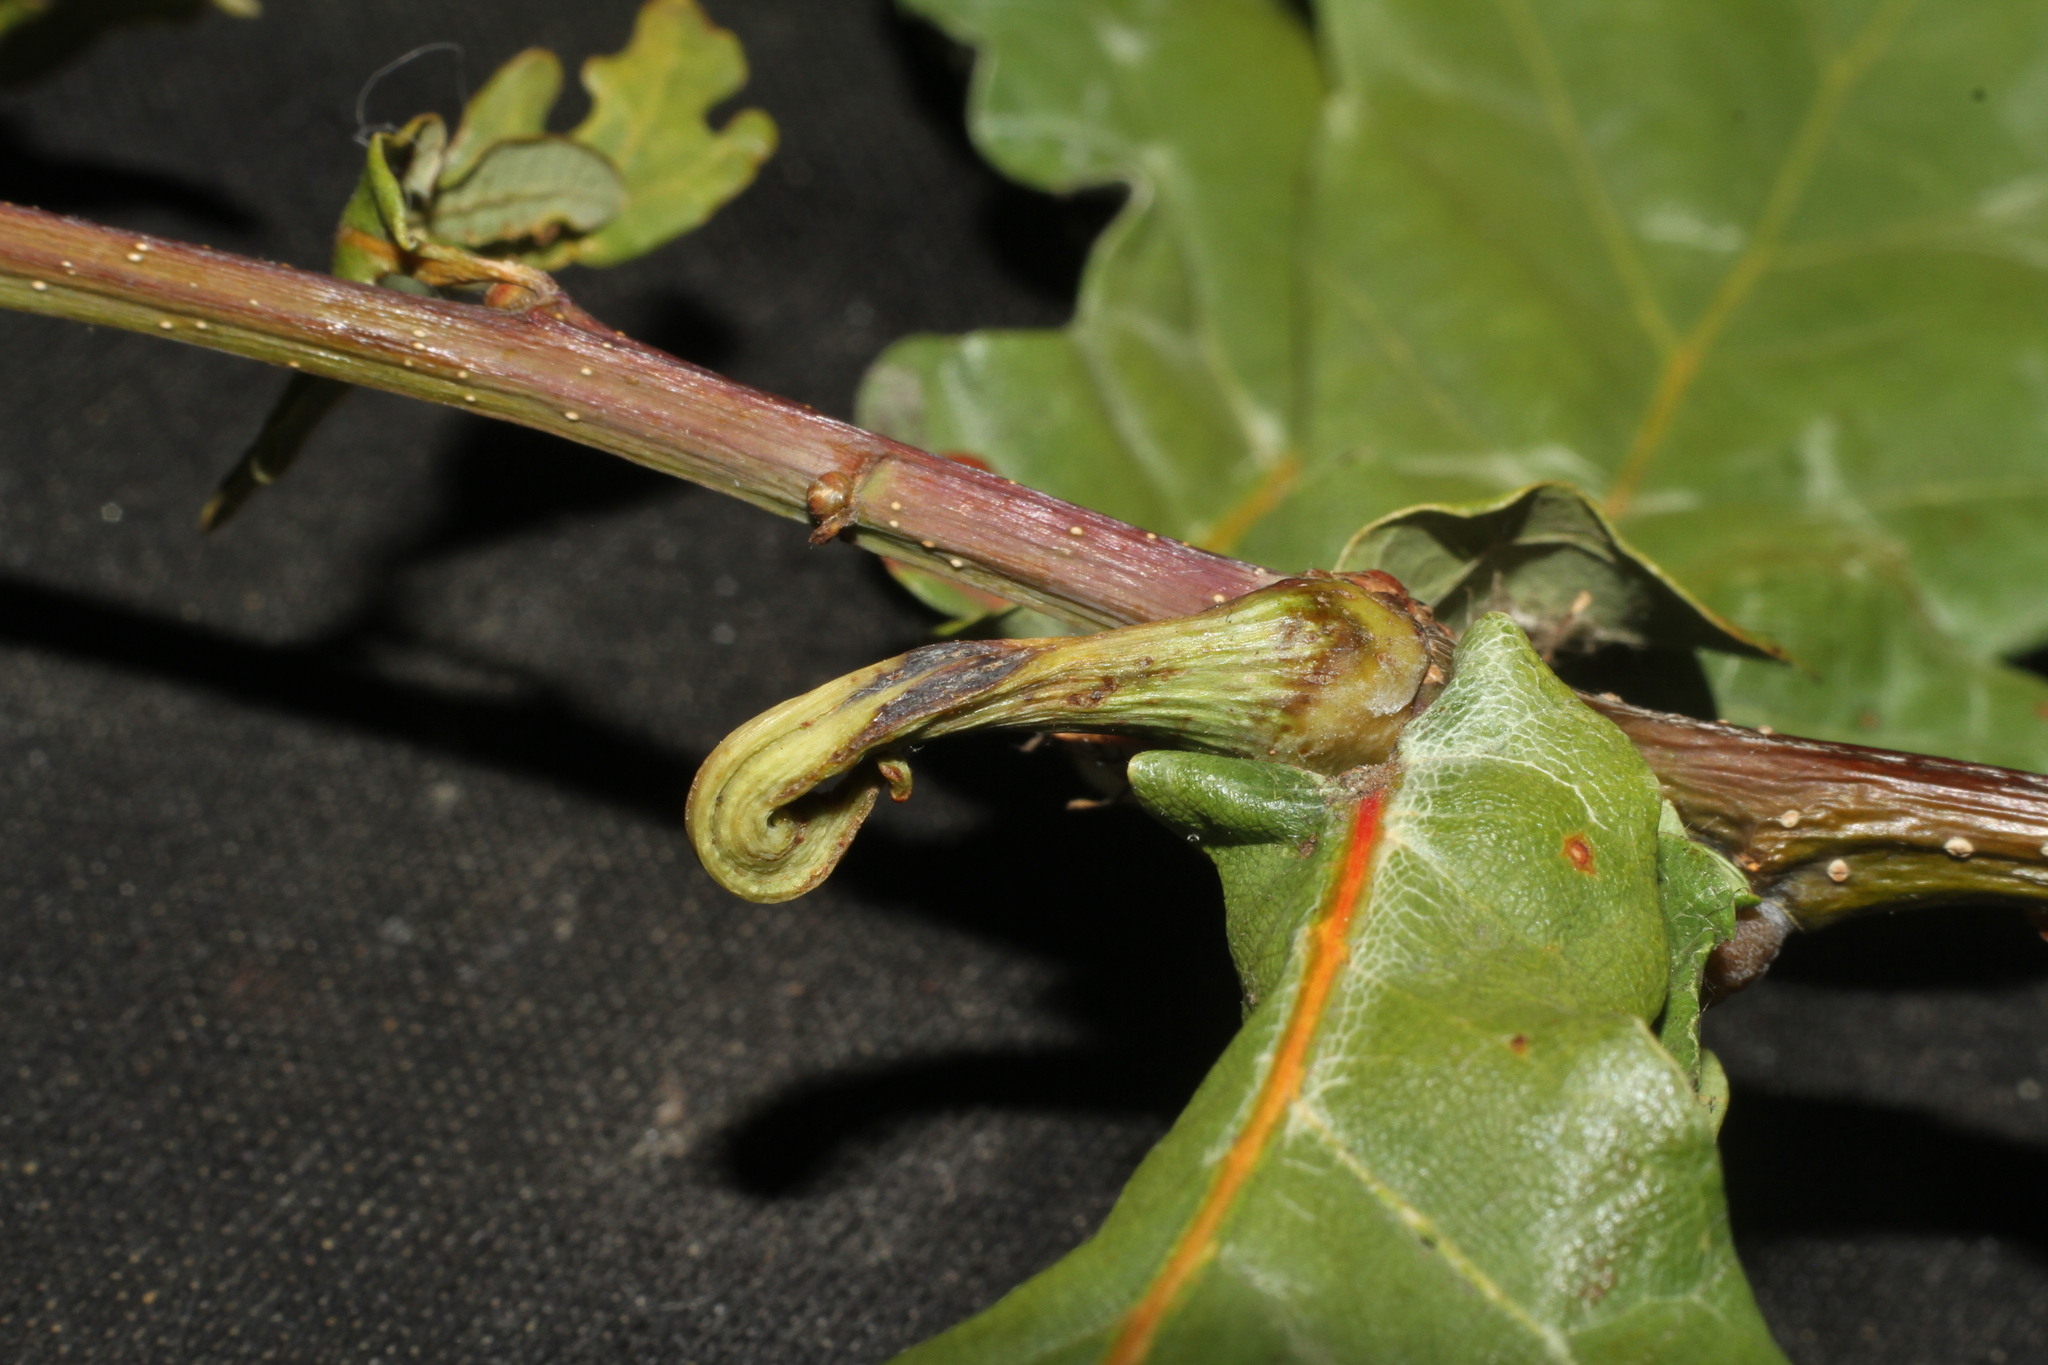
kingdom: Animalia
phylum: Arthropoda
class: Insecta
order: Hymenoptera
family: Cynipidae
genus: Andricus
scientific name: Andricus aries
